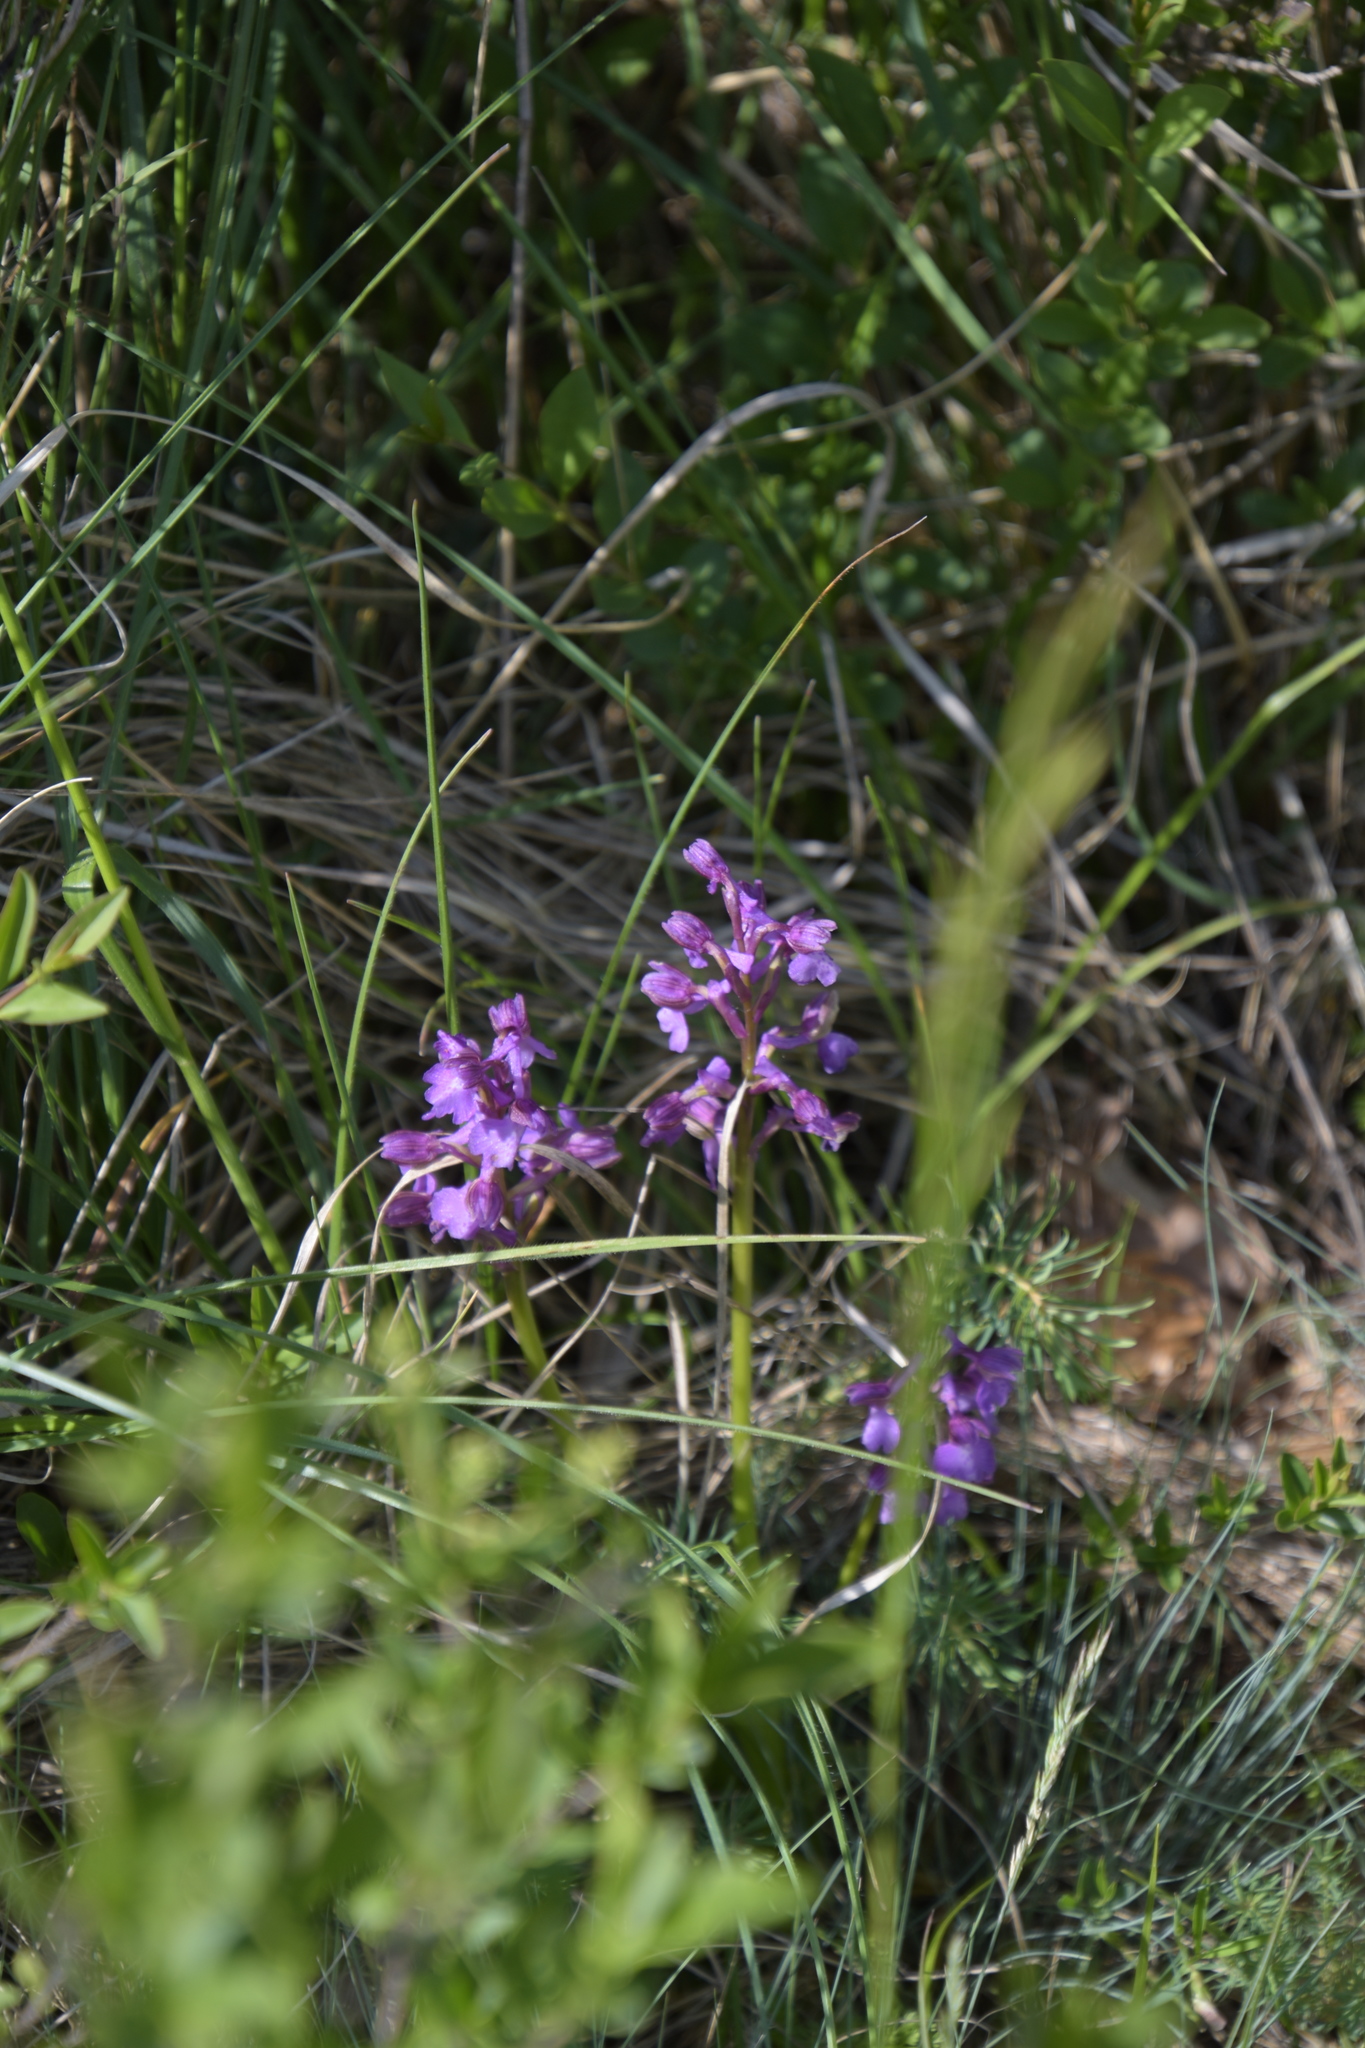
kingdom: Plantae
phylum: Tracheophyta
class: Liliopsida
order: Asparagales
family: Orchidaceae
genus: Anacamptis
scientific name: Anacamptis morio
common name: Green-winged orchid
